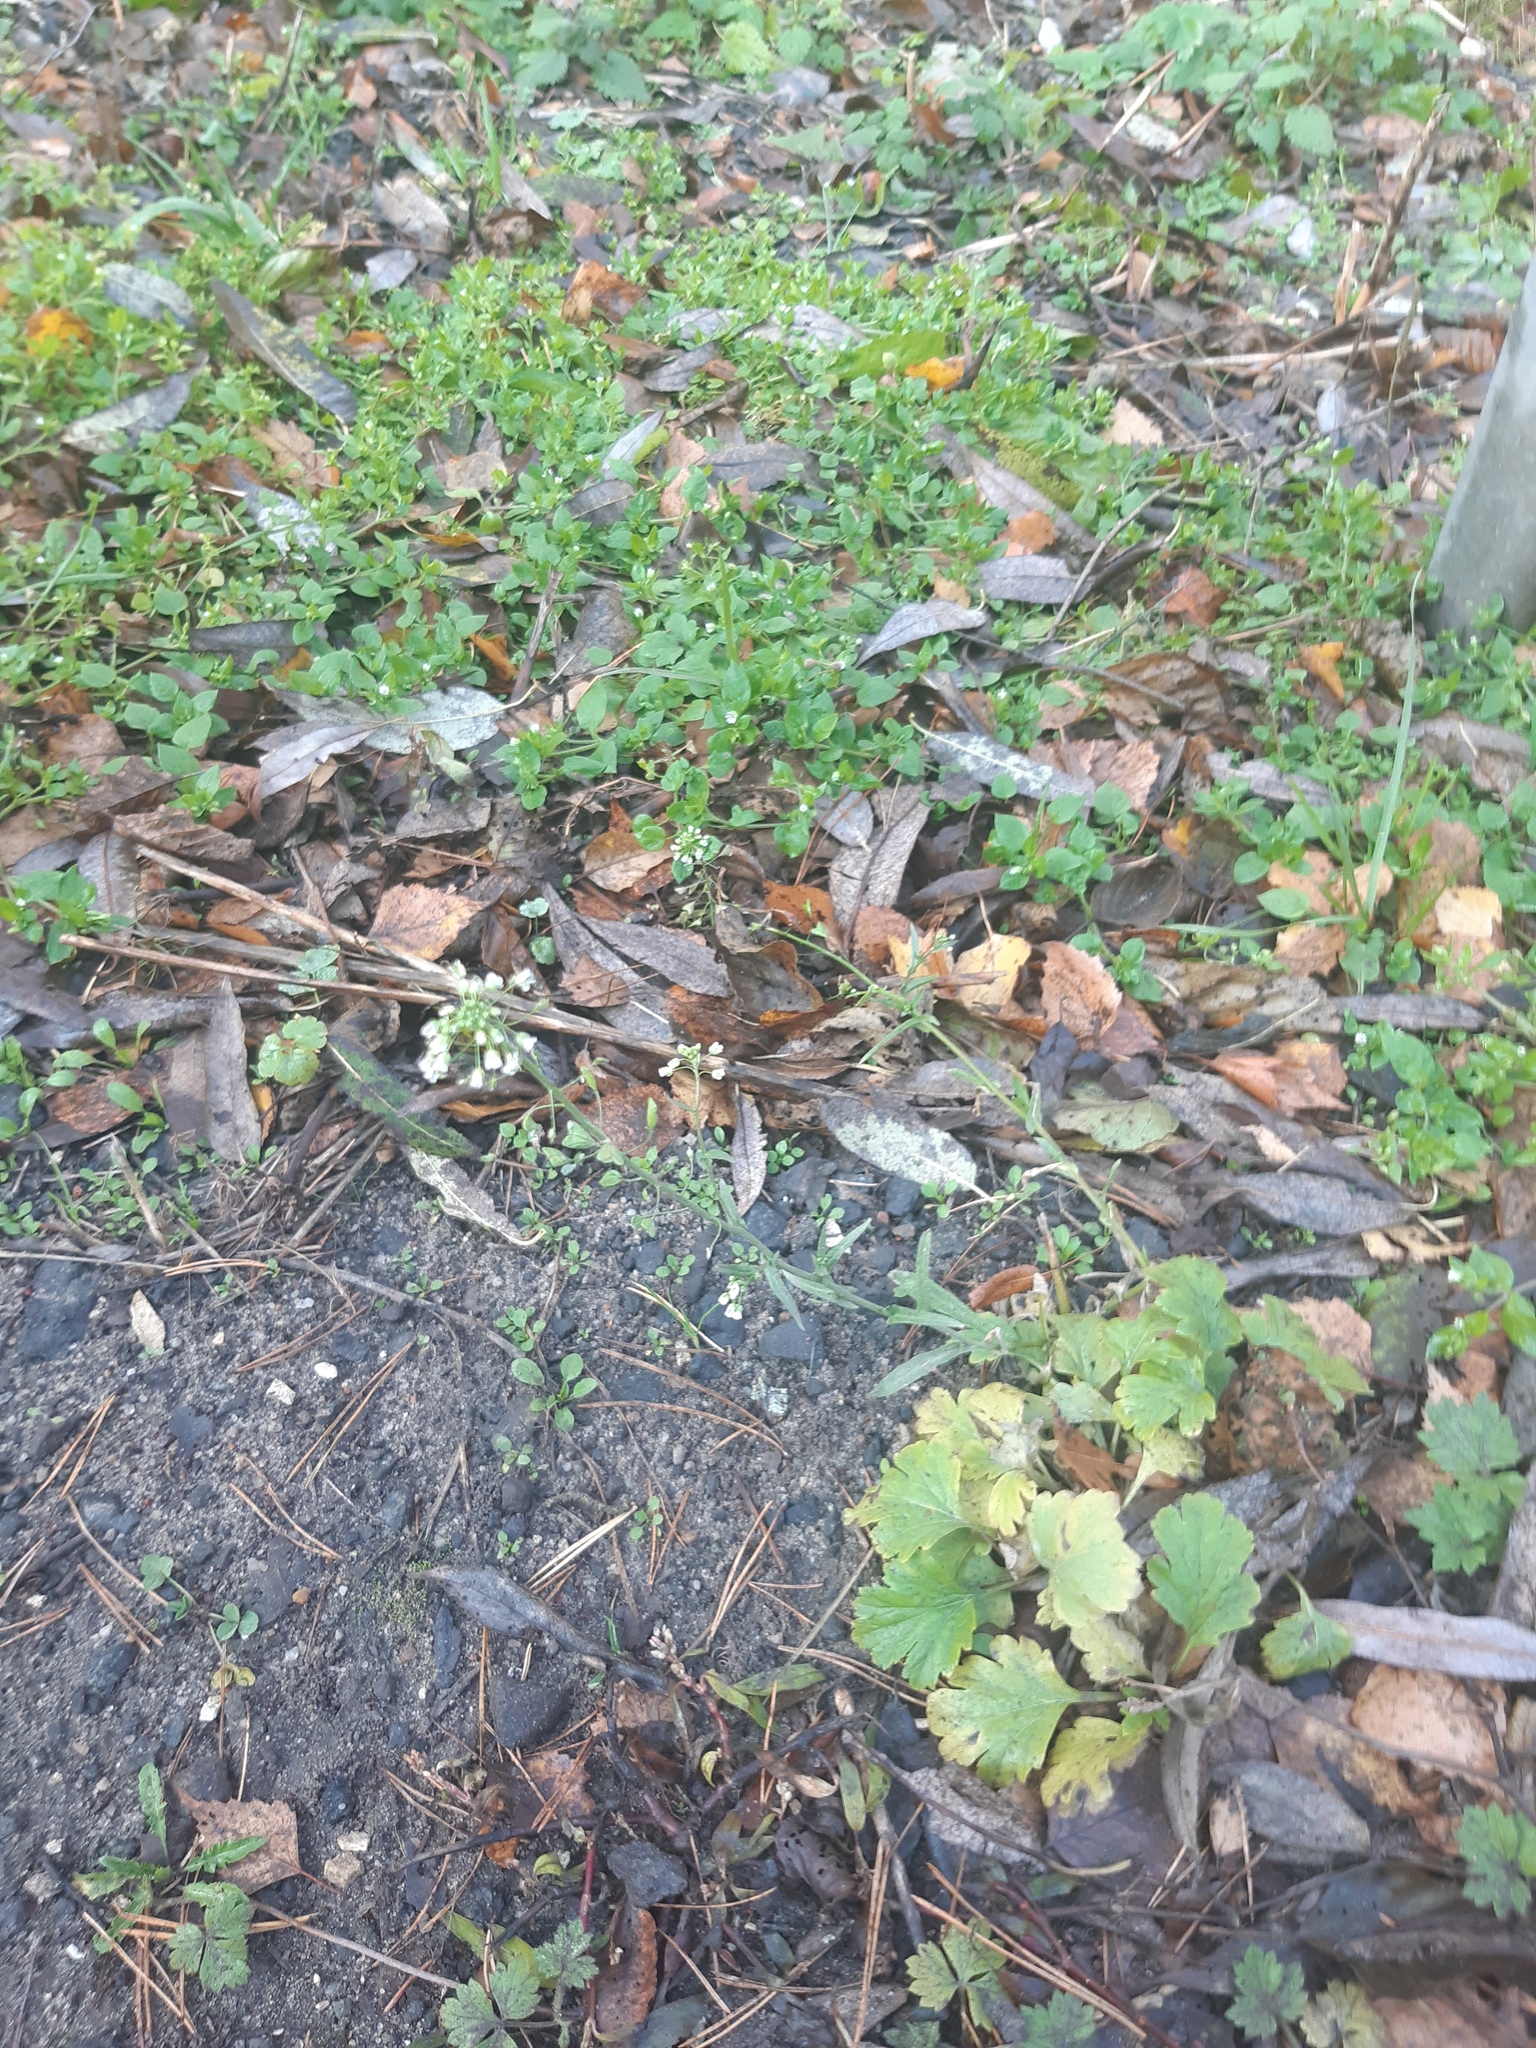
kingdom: Plantae
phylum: Tracheophyta
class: Magnoliopsida
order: Brassicales
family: Brassicaceae
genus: Capsella
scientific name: Capsella bursa-pastoris
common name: Shepherd's purse
